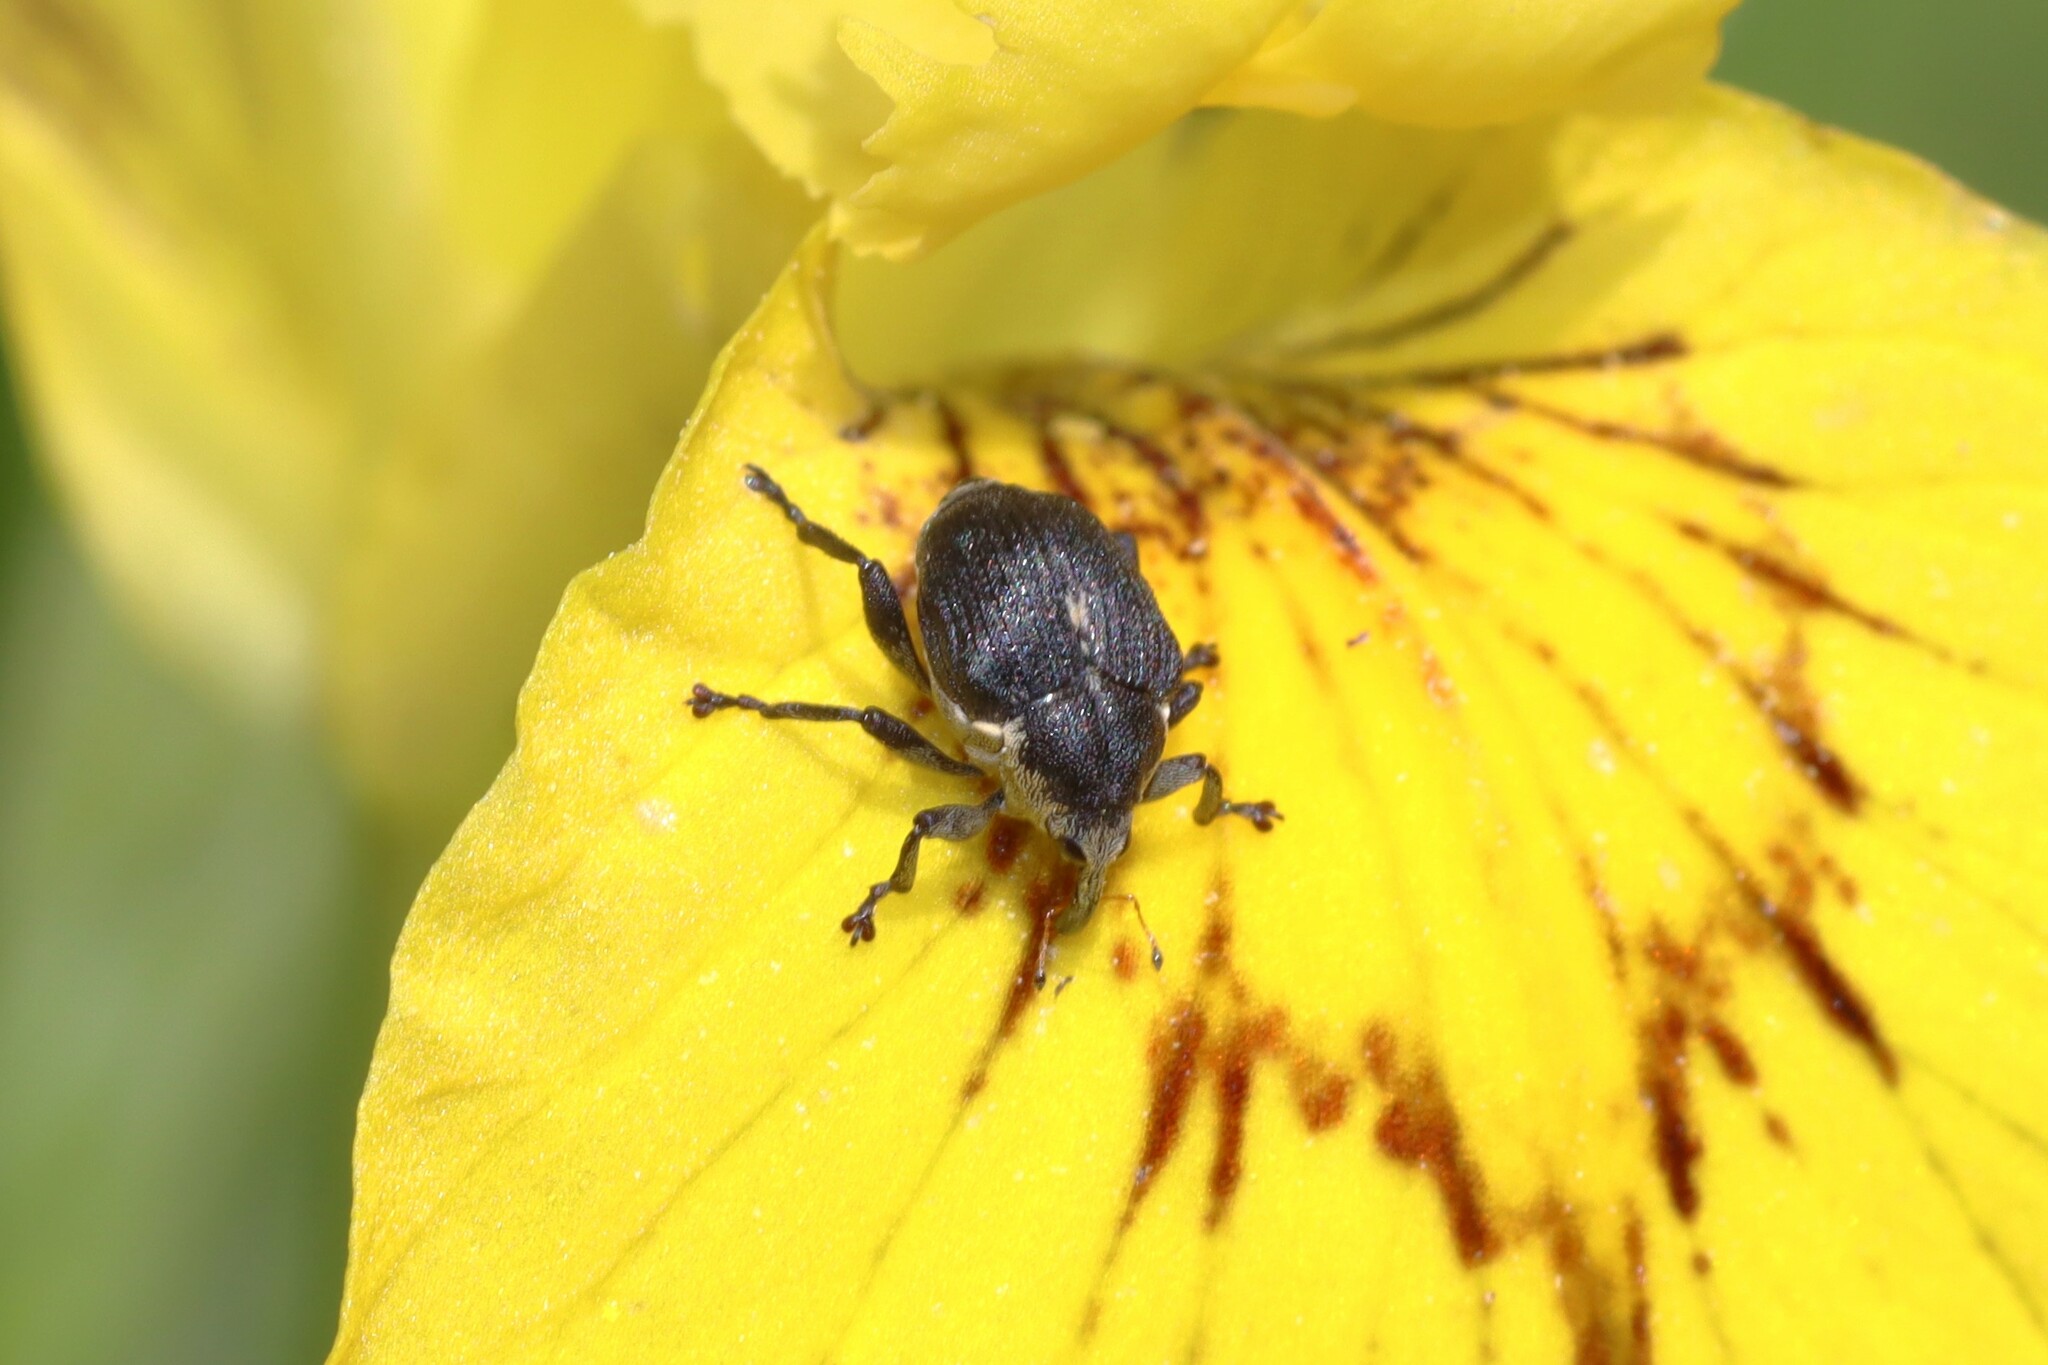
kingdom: Animalia
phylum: Arthropoda
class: Insecta
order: Coleoptera
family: Curculionidae
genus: Mononychus
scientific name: Mononychus punctumalbum
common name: Iris weevil
